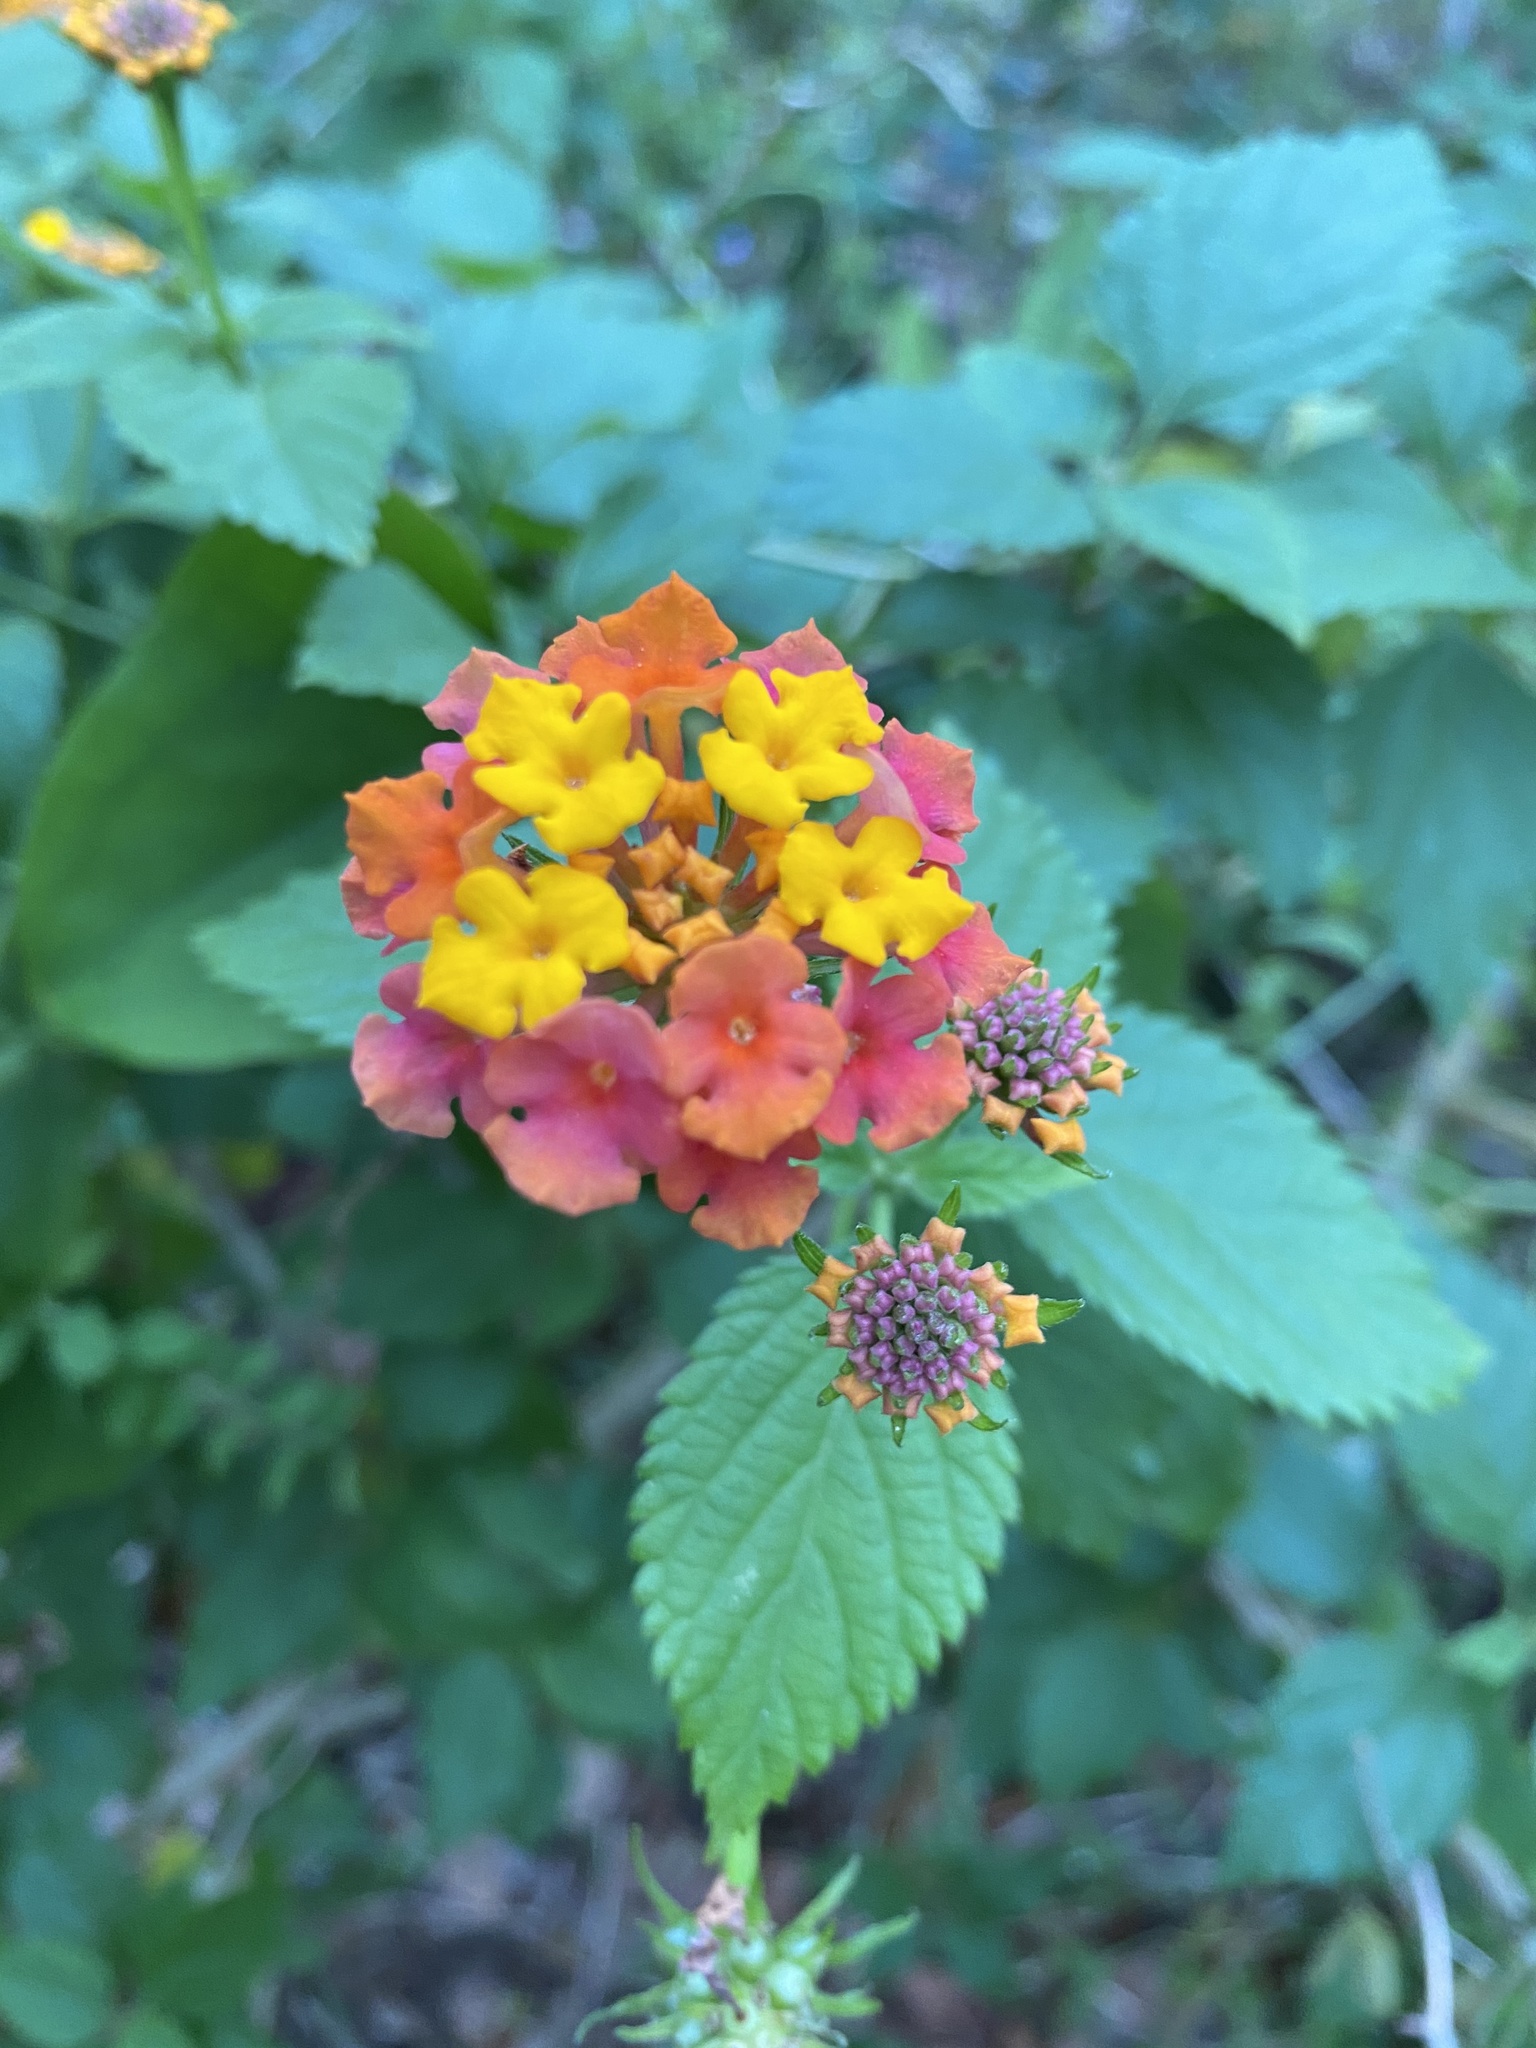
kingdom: Plantae
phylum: Tracheophyta
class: Magnoliopsida
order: Lamiales
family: Verbenaceae
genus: Lantana
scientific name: Lantana camara
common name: Lantana
